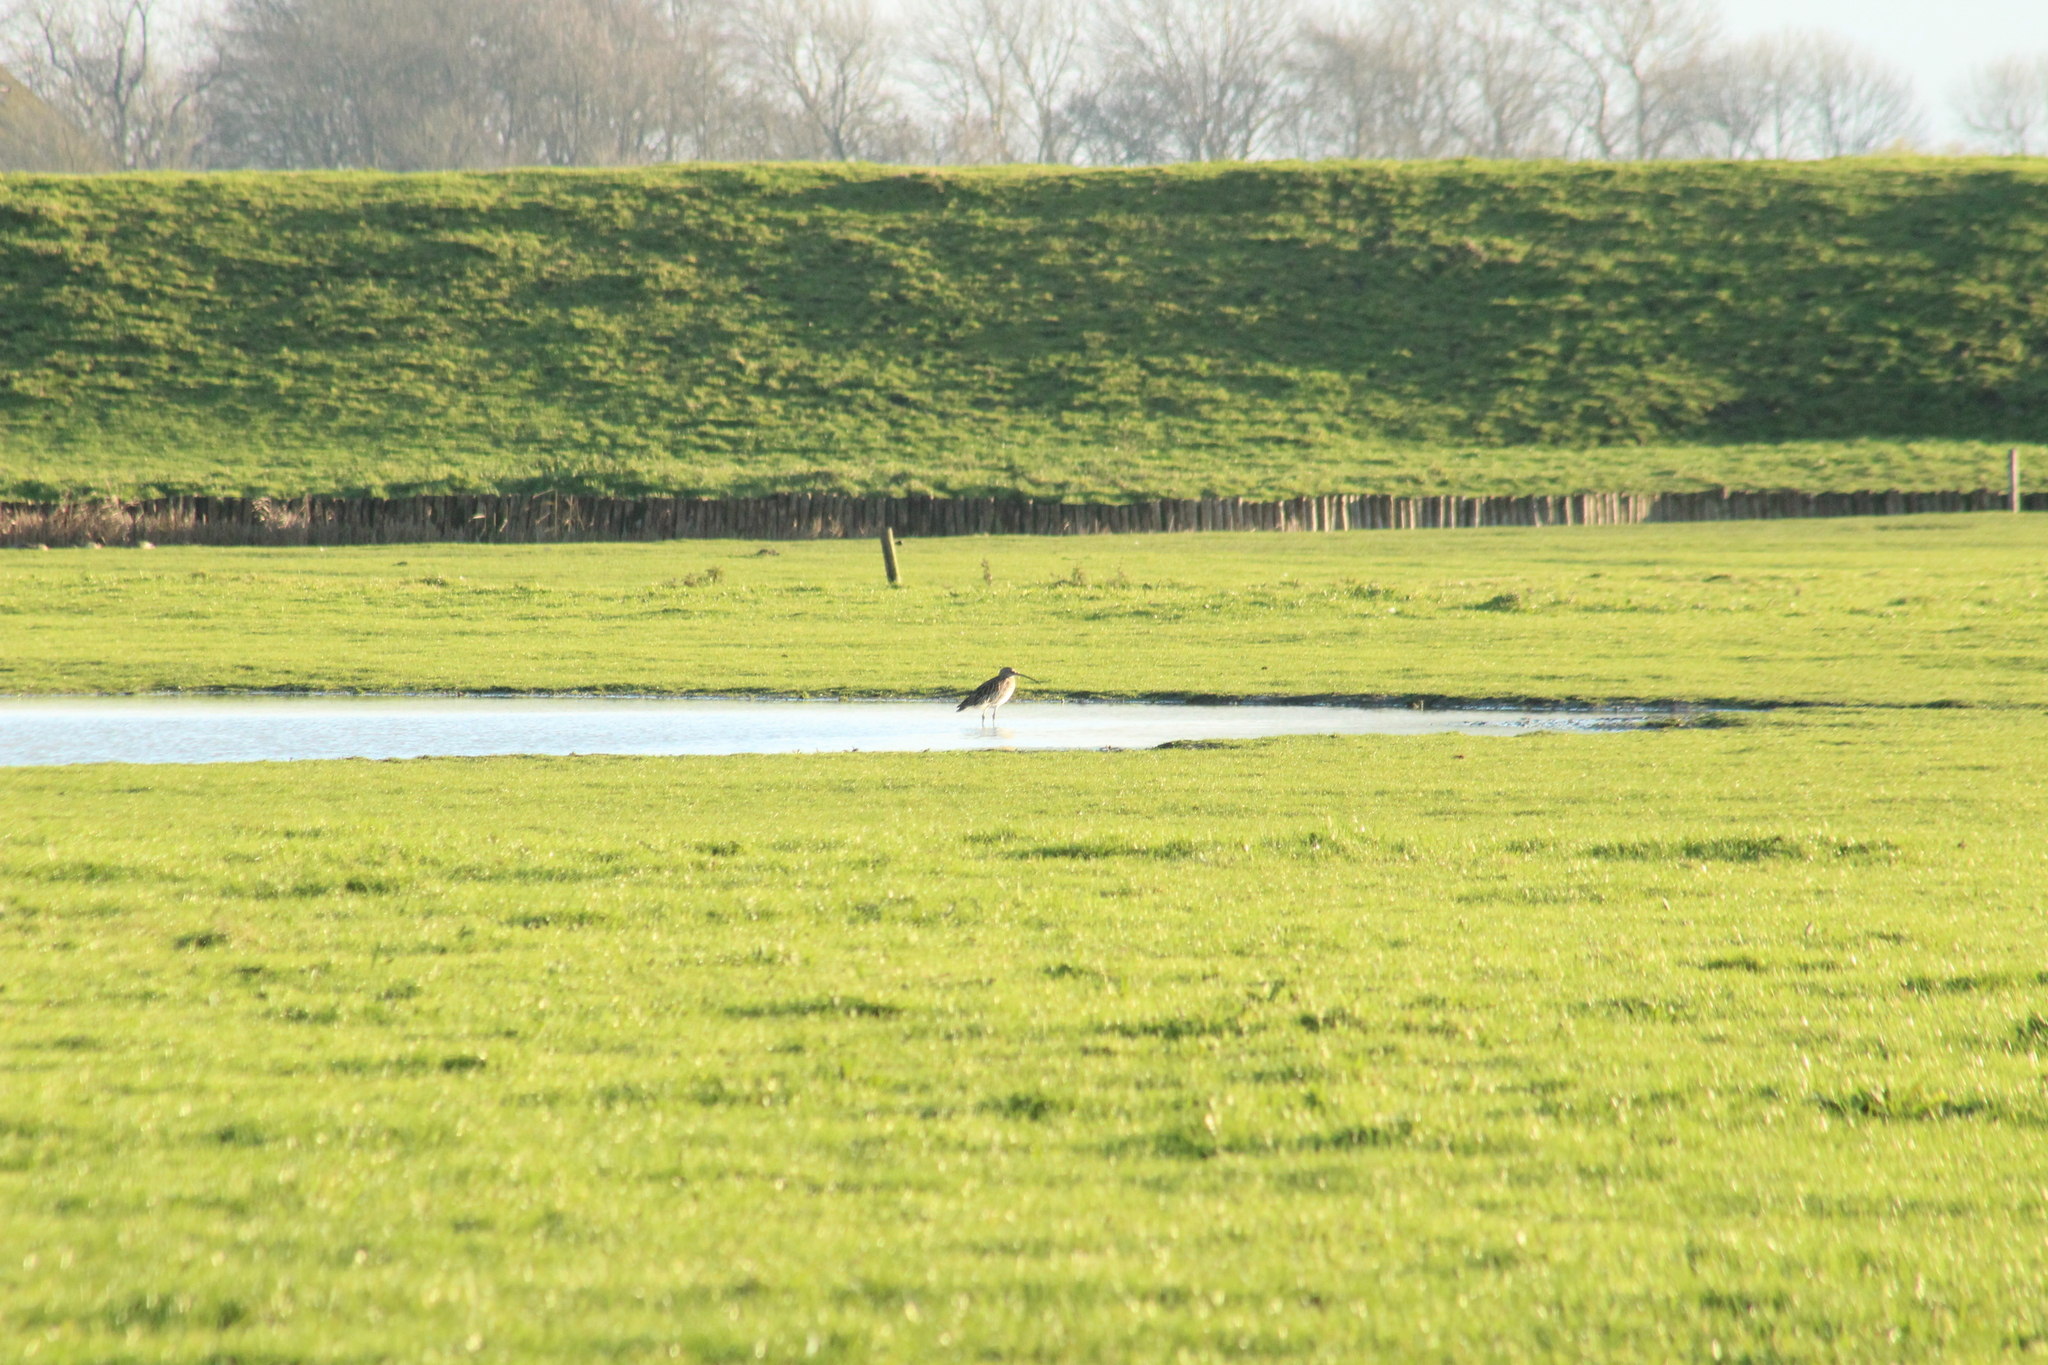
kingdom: Animalia
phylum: Chordata
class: Aves
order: Charadriiformes
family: Scolopacidae
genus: Numenius
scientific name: Numenius arquata
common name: Eurasian curlew
